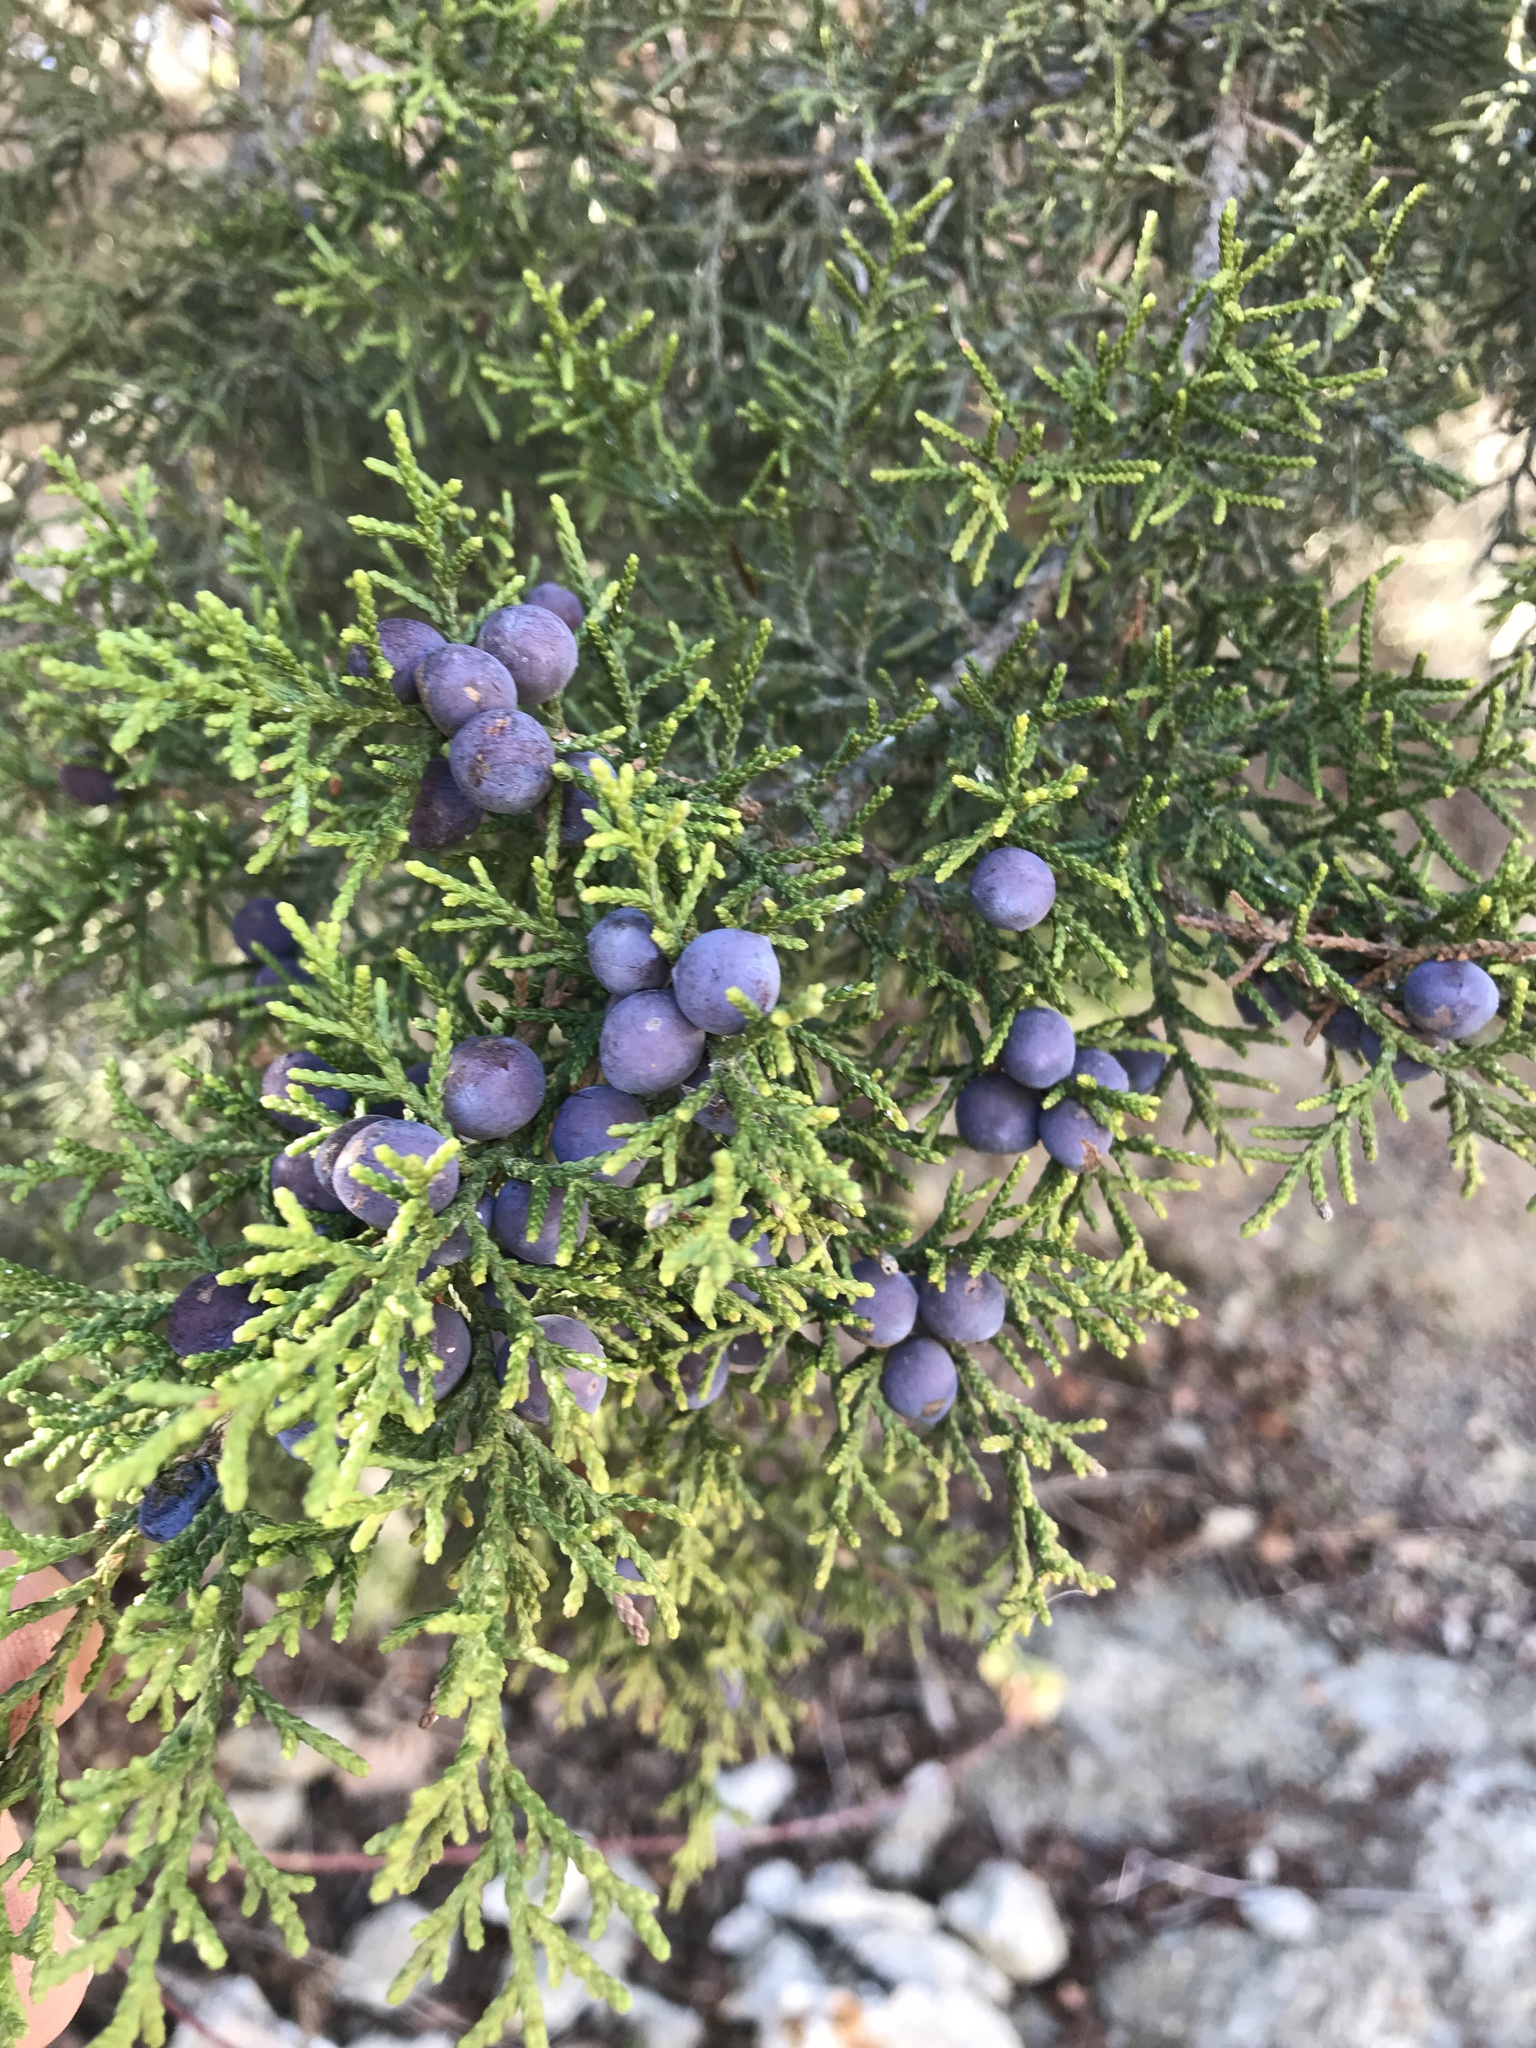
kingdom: Plantae
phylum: Tracheophyta
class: Pinopsida
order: Pinales
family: Cupressaceae
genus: Juniperus
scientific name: Juniperus ashei
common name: Mexican juniper
